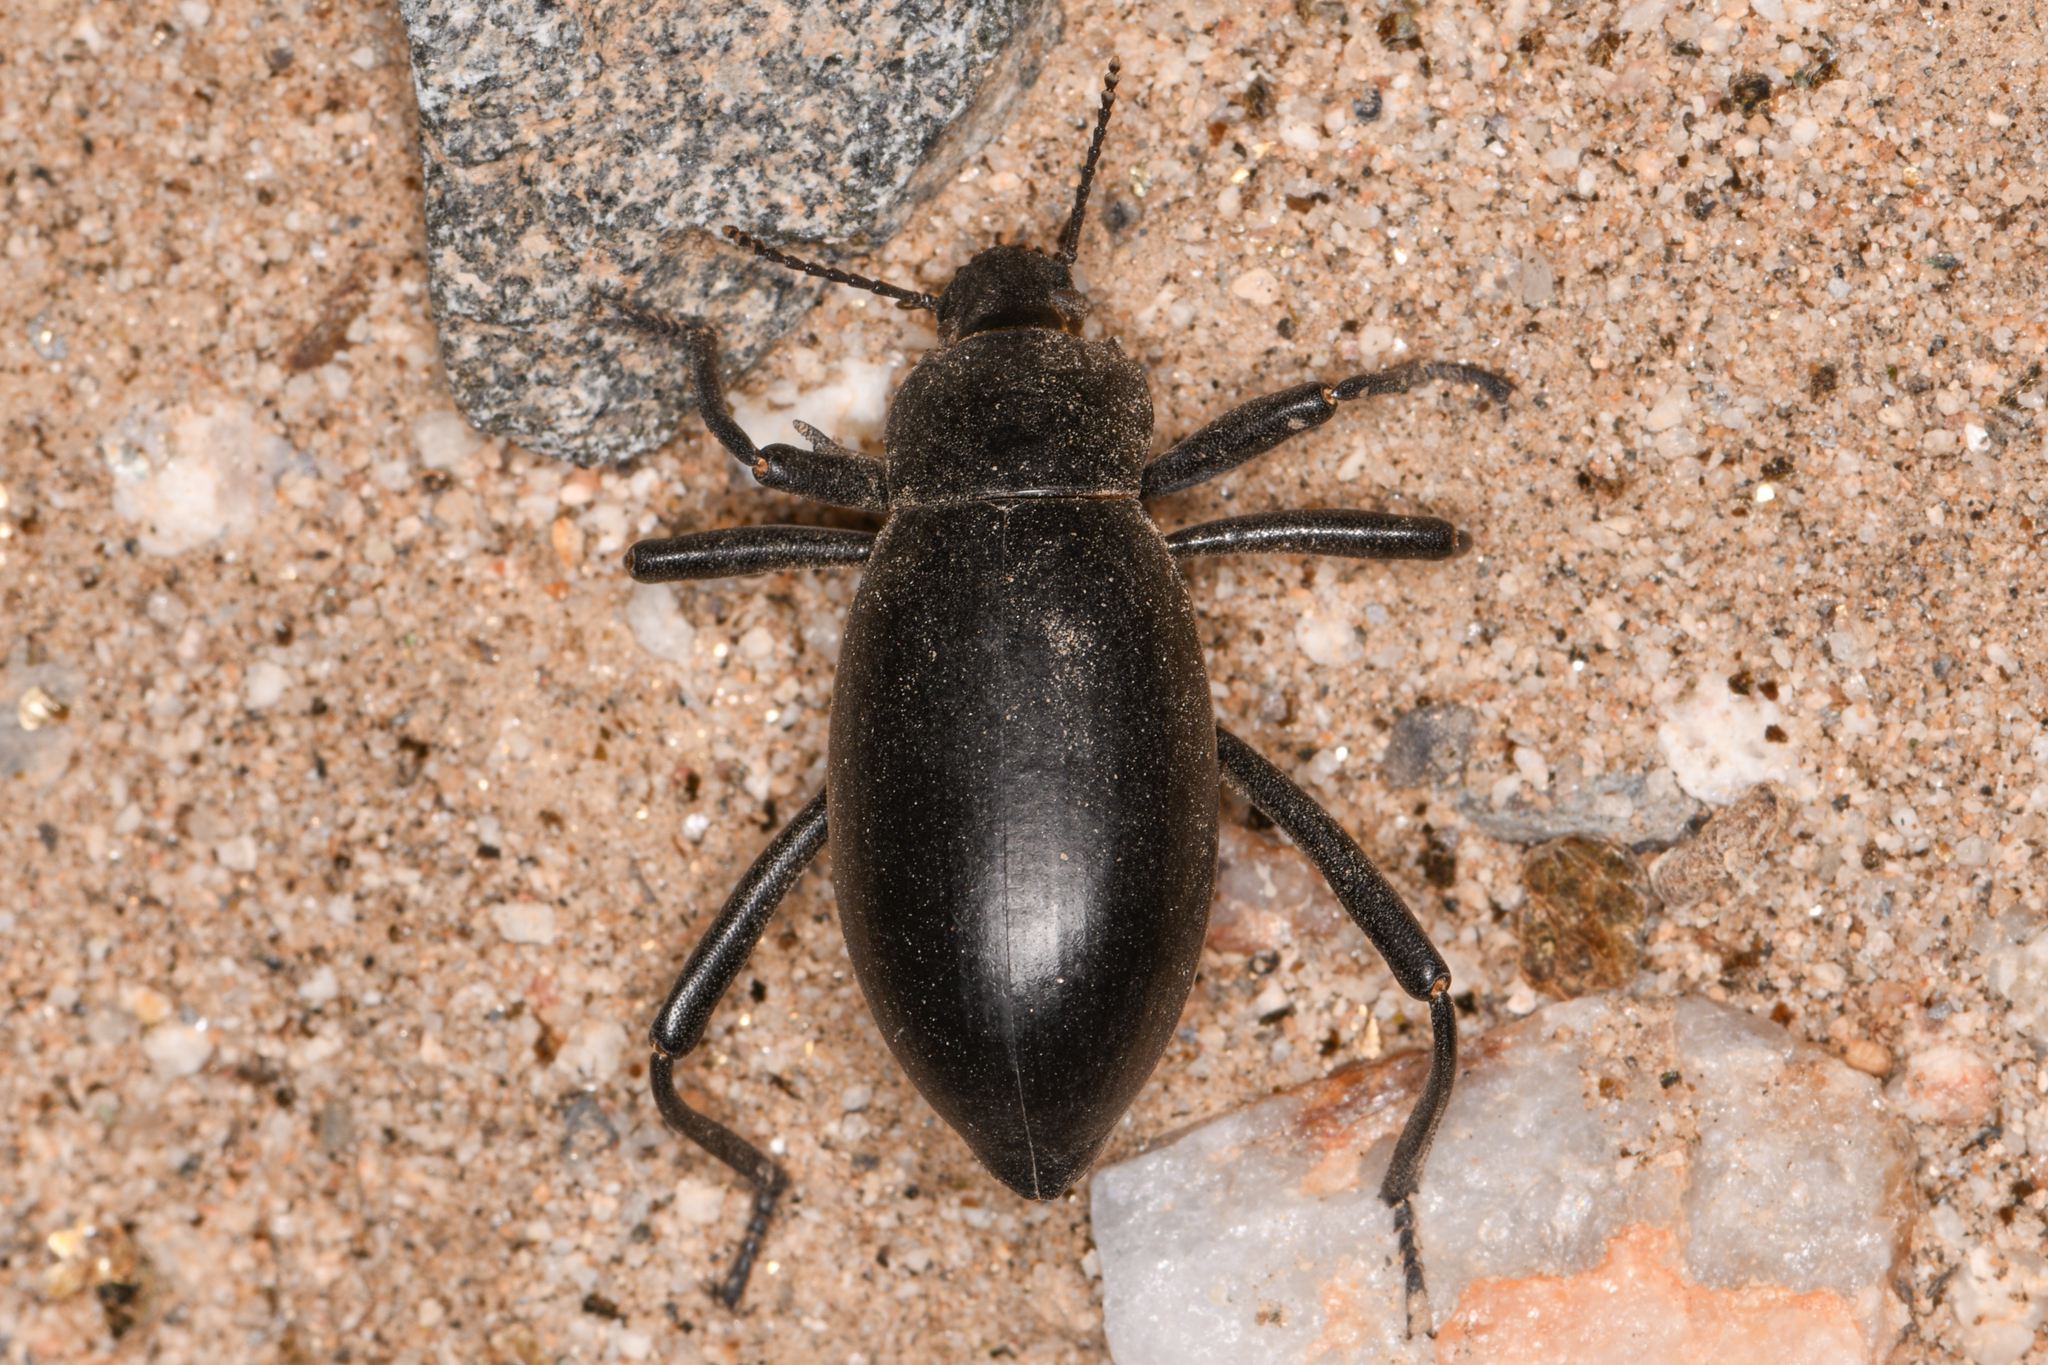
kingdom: Animalia
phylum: Arthropoda
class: Insecta
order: Coleoptera
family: Tenebrionidae
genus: Eleodes
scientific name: Eleodes armata
